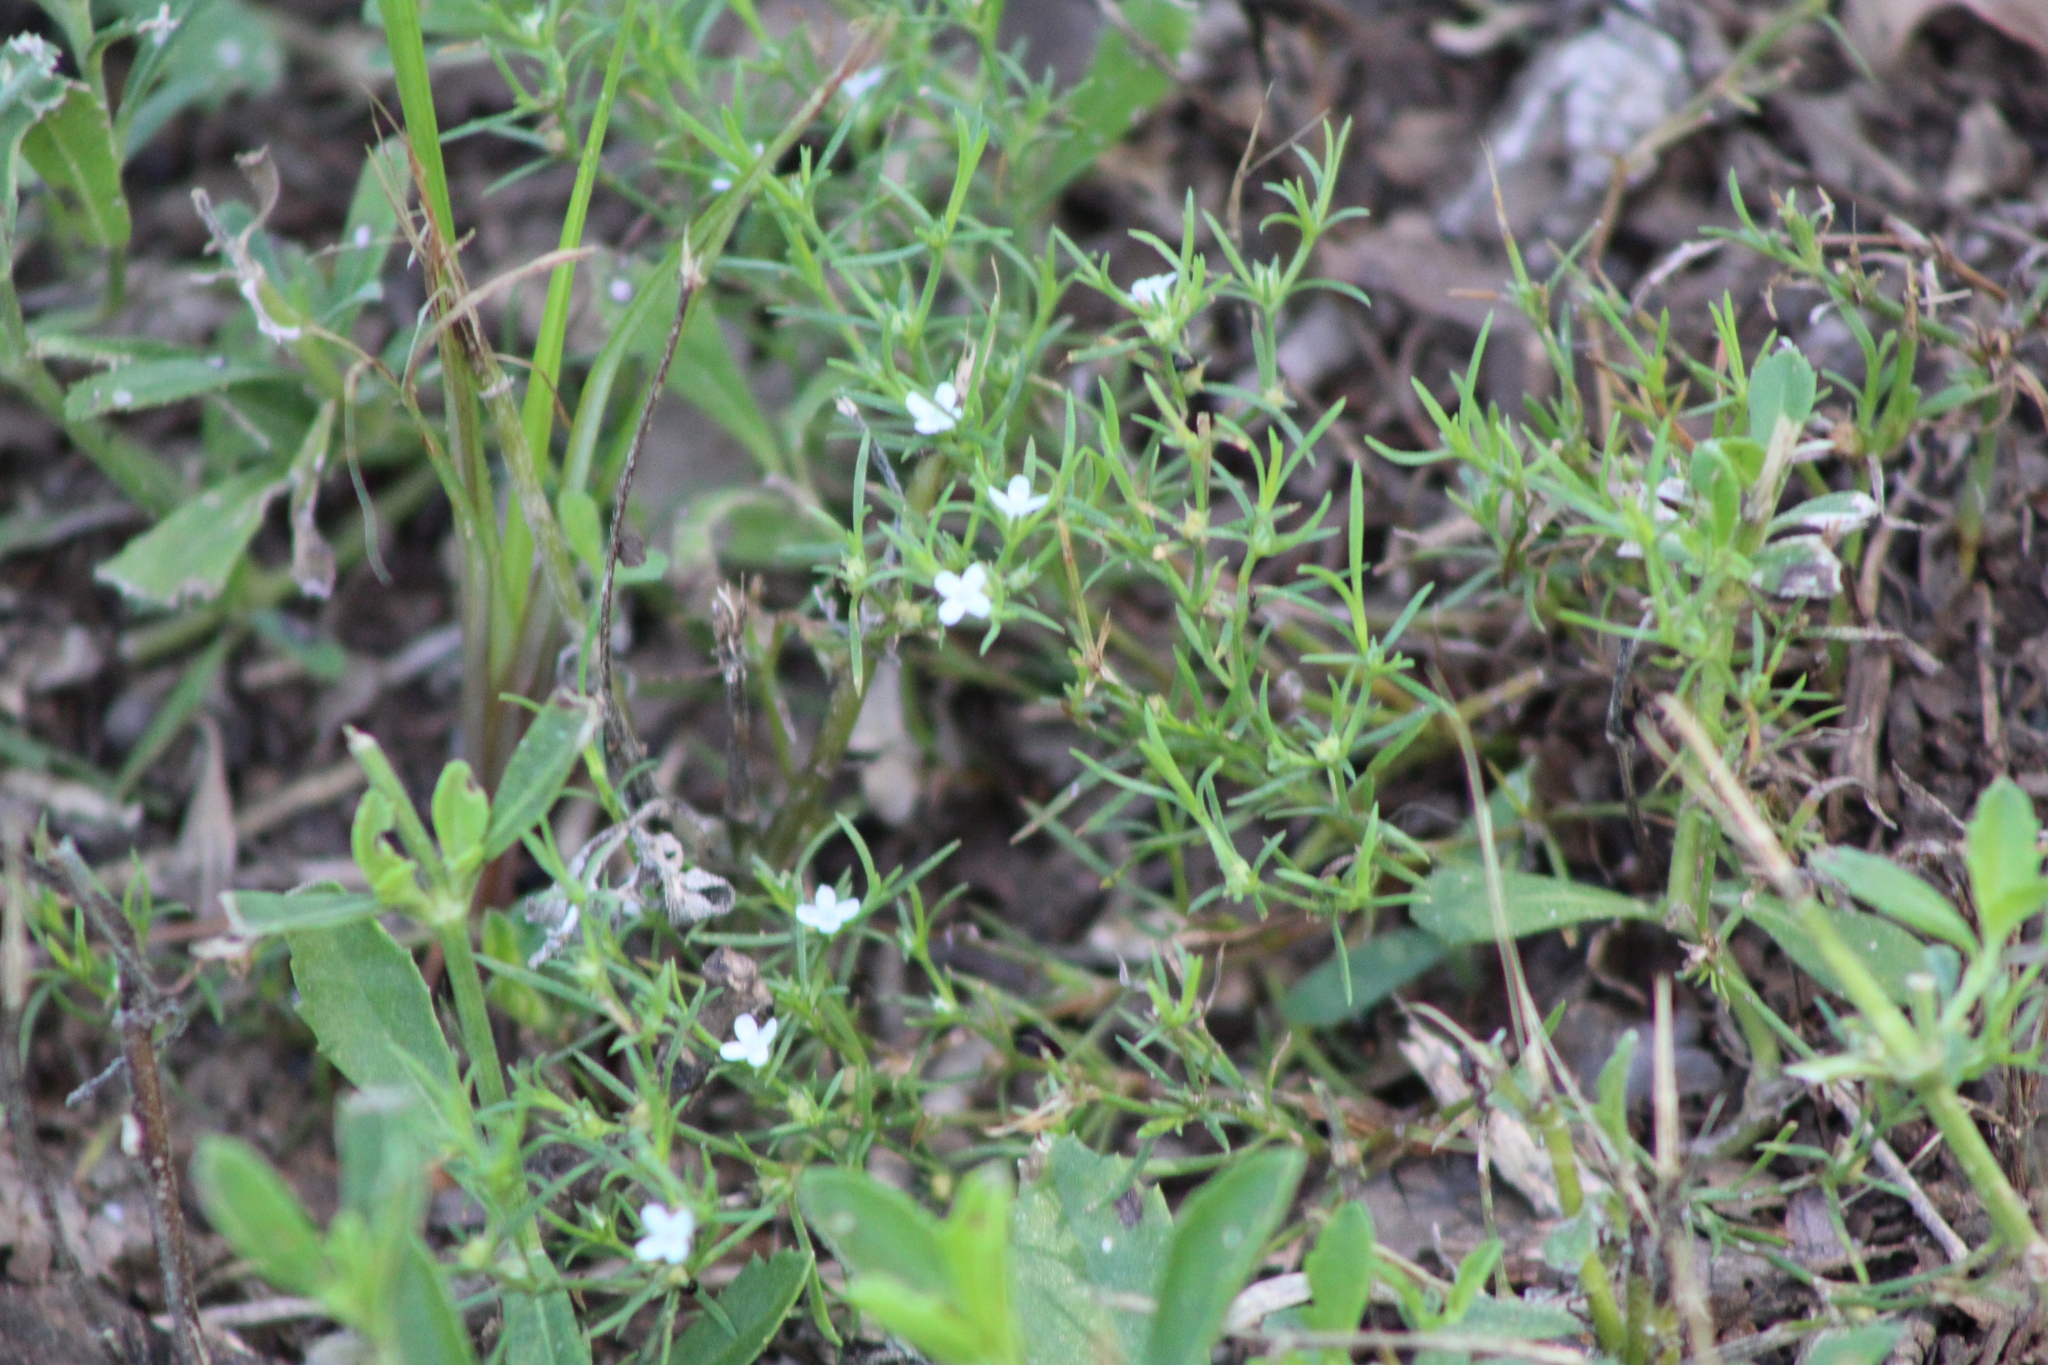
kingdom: Plantae
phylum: Tracheophyta
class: Magnoliopsida
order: Lamiales
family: Tetrachondraceae
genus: Polypremum
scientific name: Polypremum procumbens
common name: Juniper-leaf
